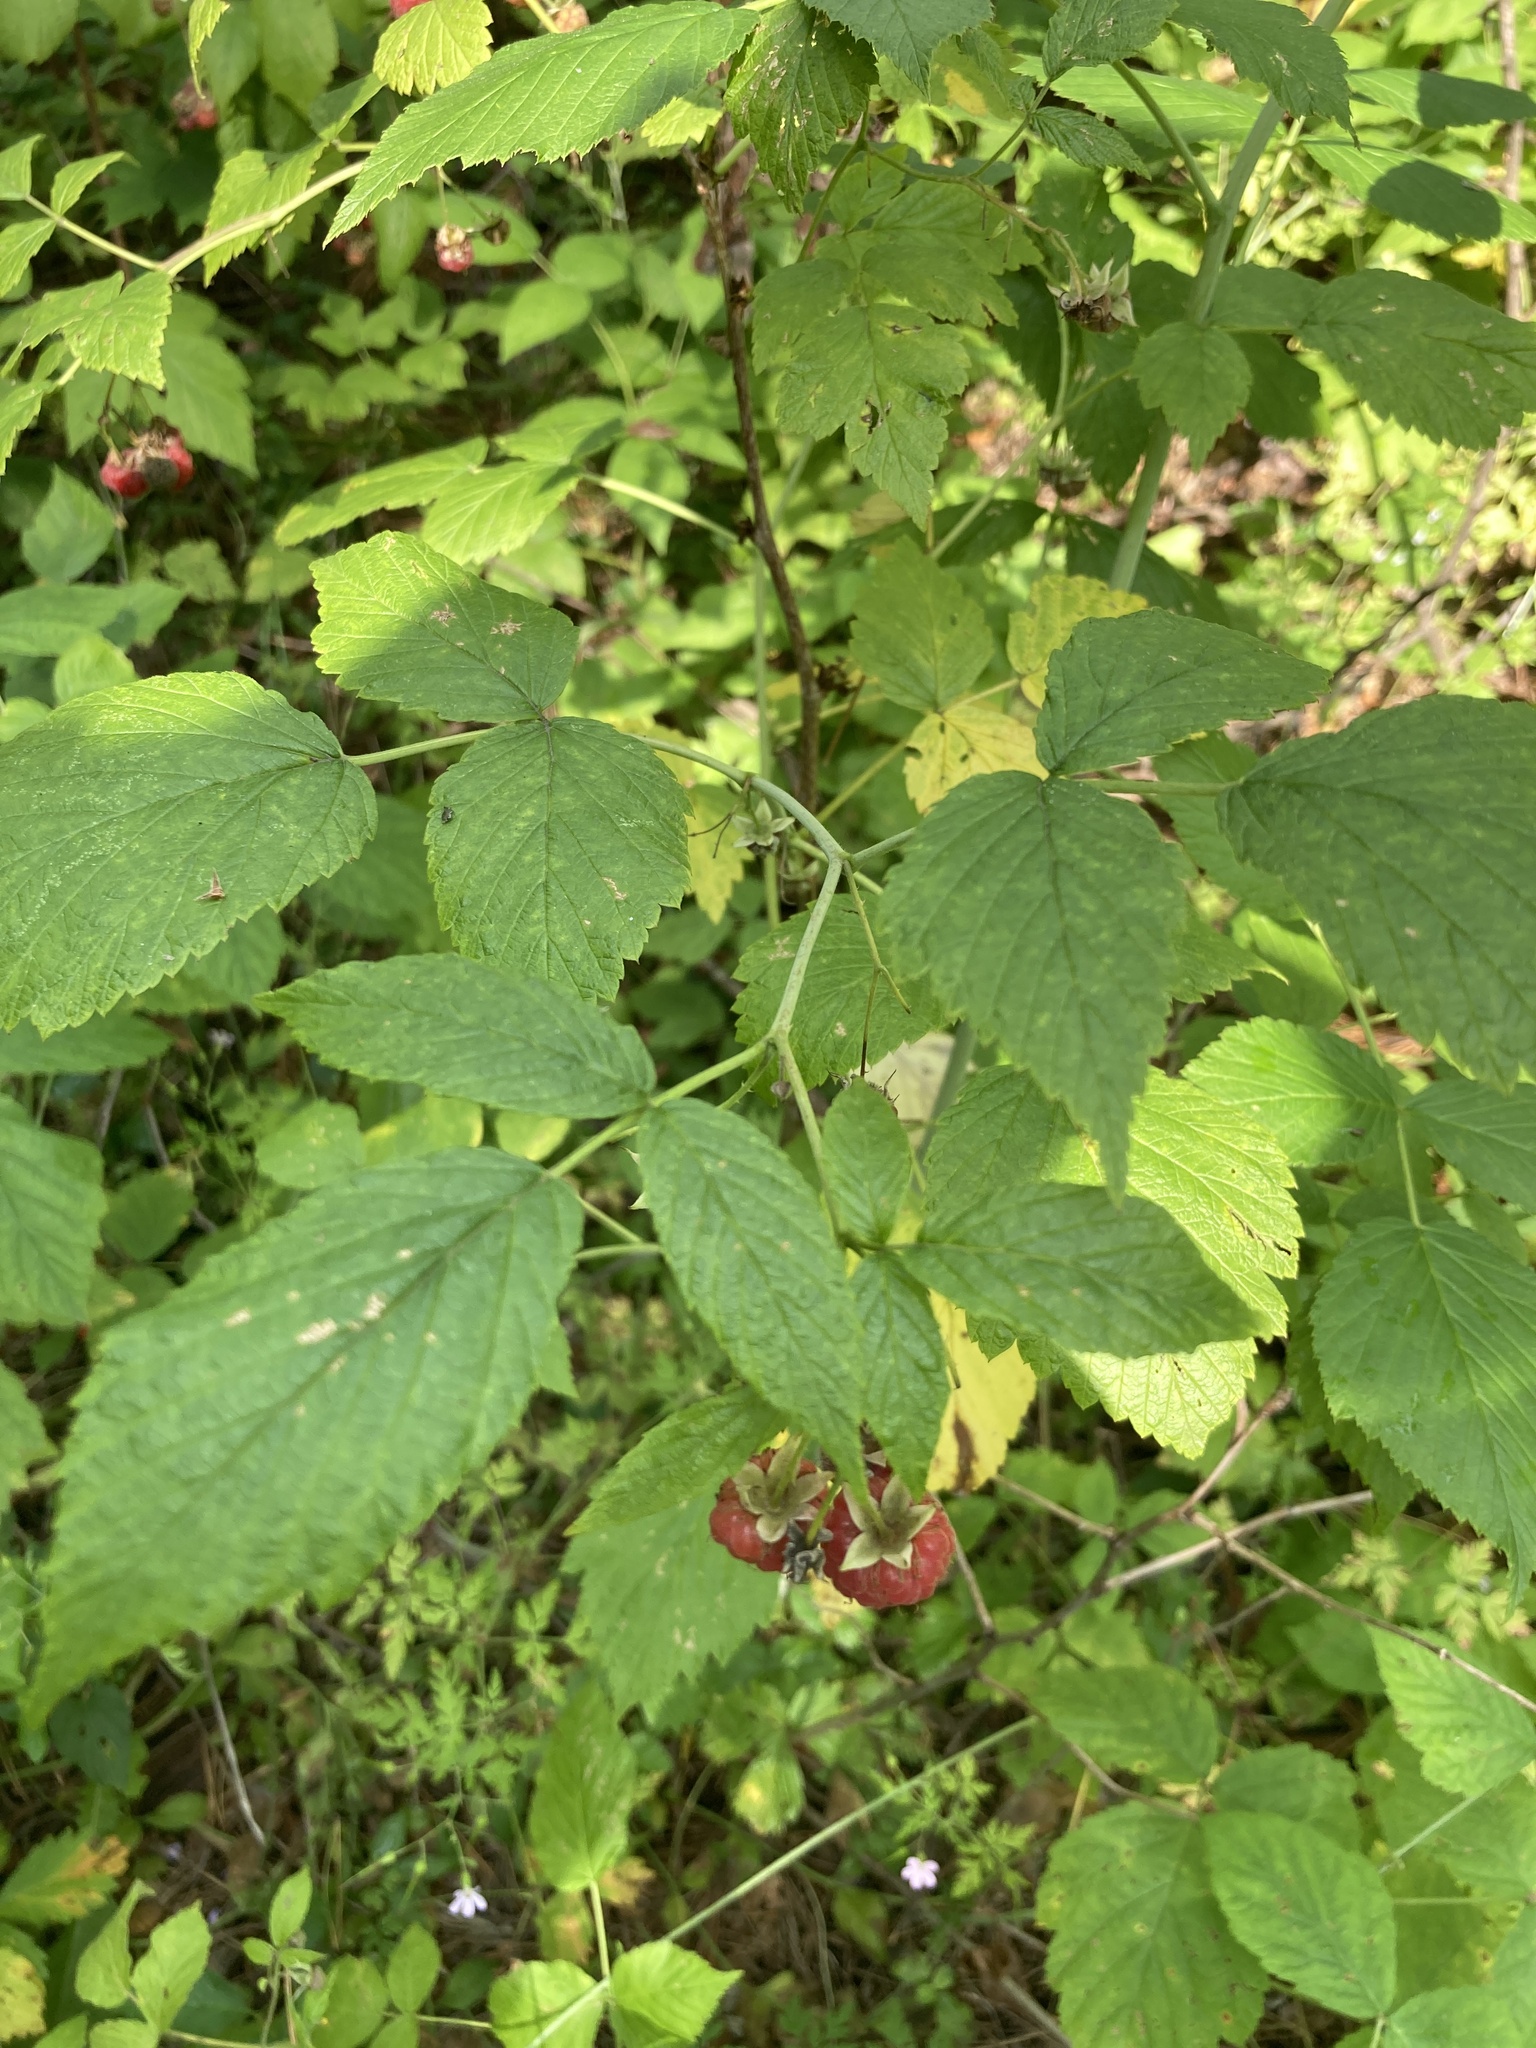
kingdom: Plantae
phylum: Tracheophyta
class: Magnoliopsida
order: Rosales
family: Rosaceae
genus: Rubus
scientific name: Rubus idaeus
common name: Raspberry
